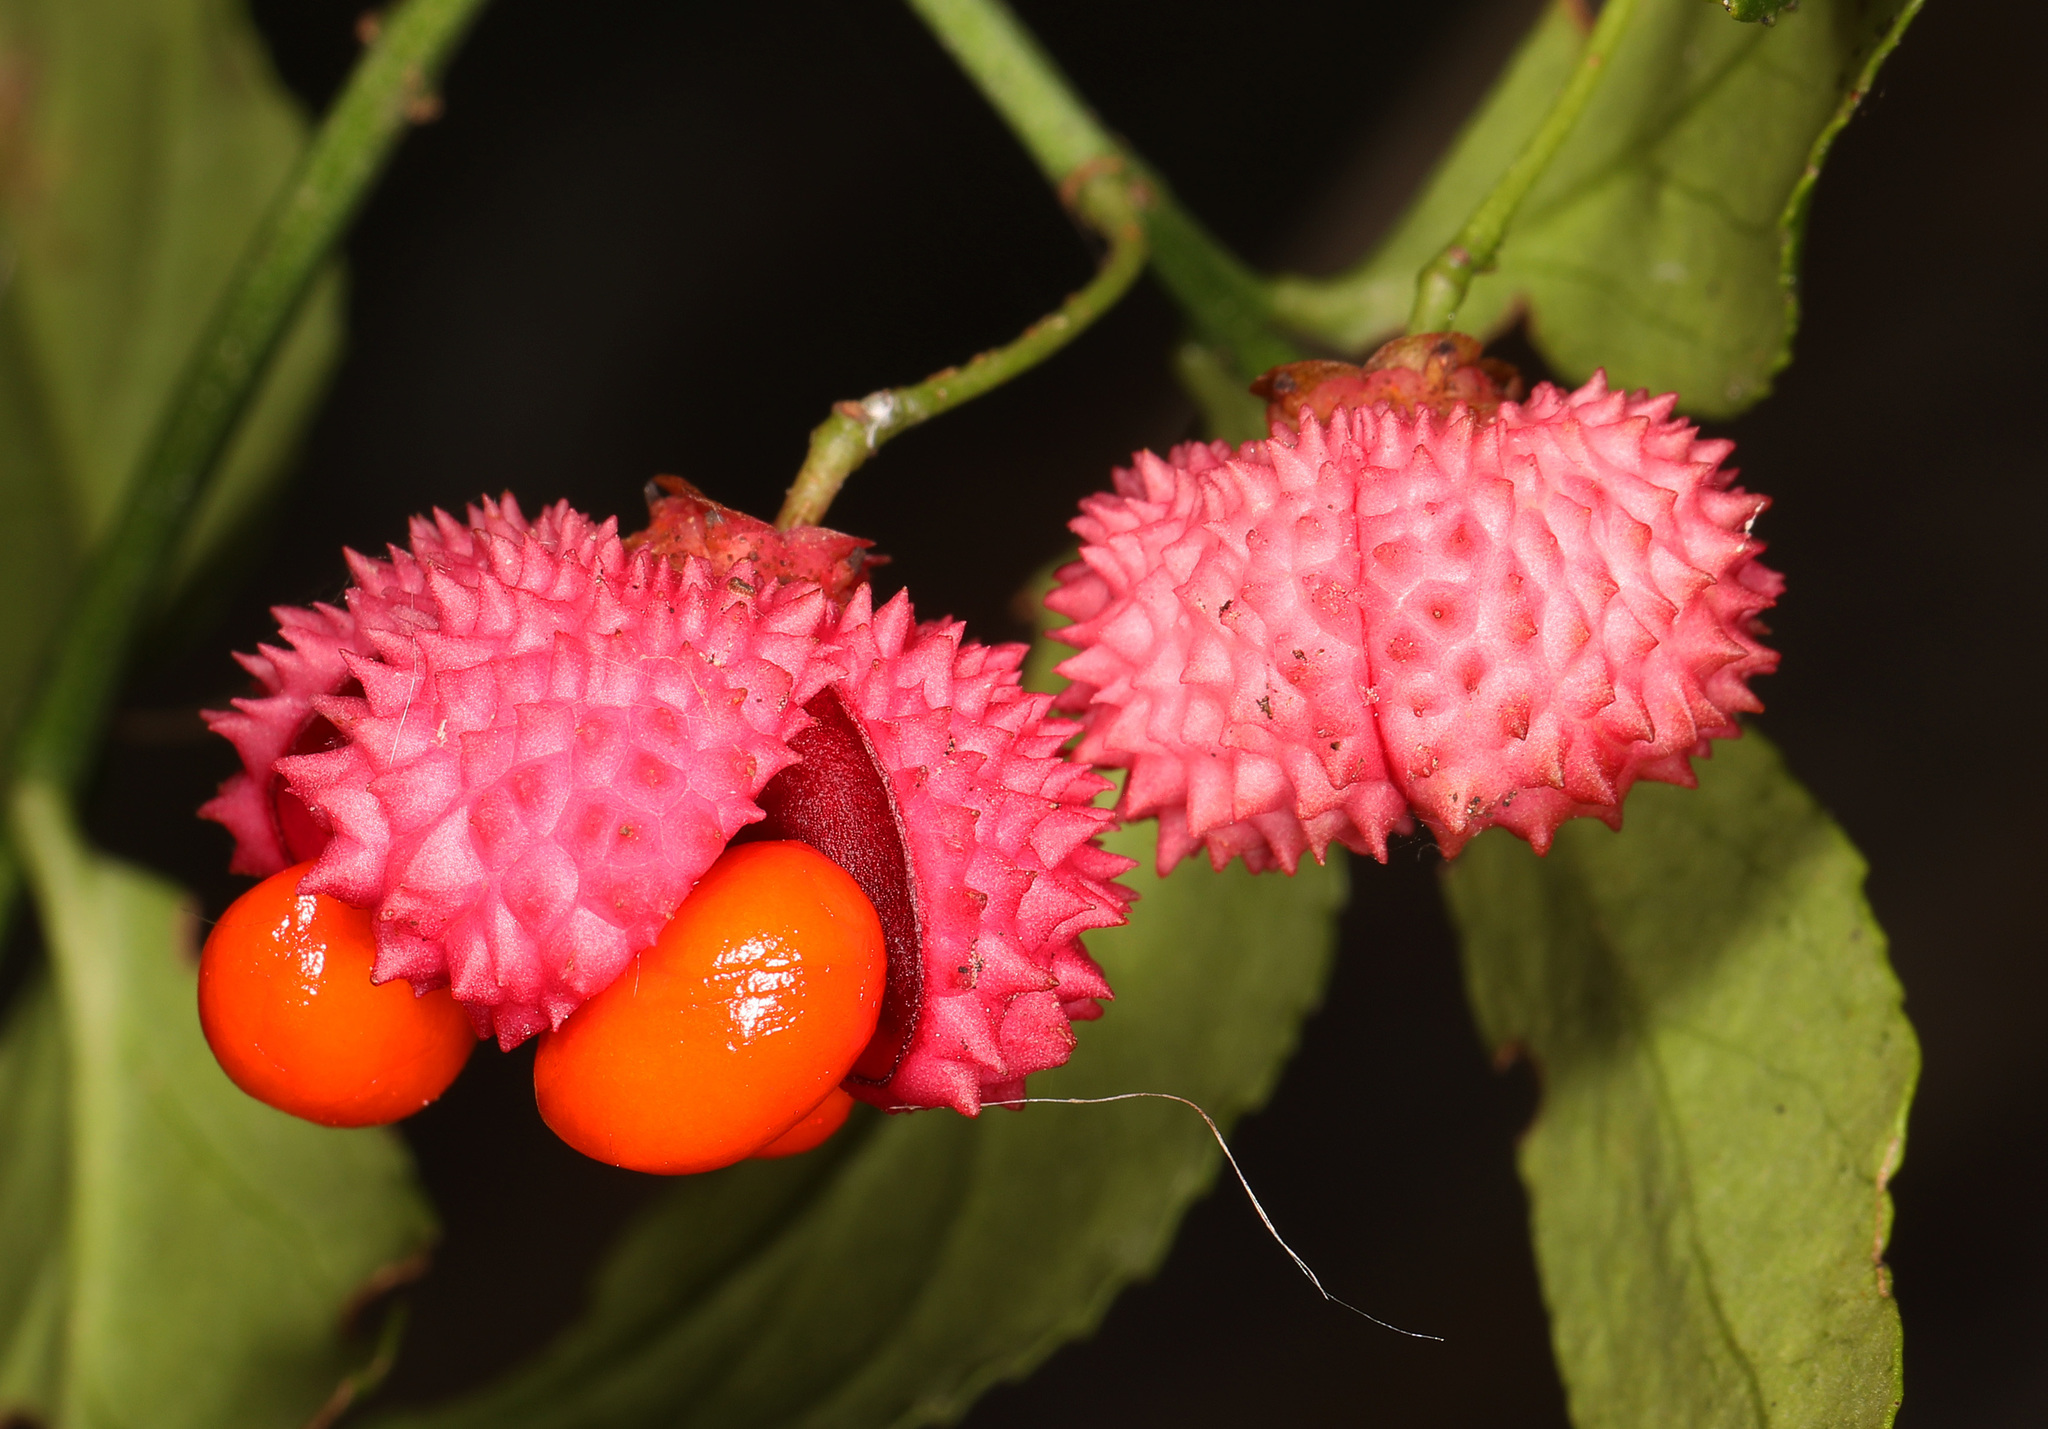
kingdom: Plantae
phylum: Tracheophyta
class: Magnoliopsida
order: Celastrales
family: Celastraceae
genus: Euonymus
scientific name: Euonymus americanus
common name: Bursting-heart
